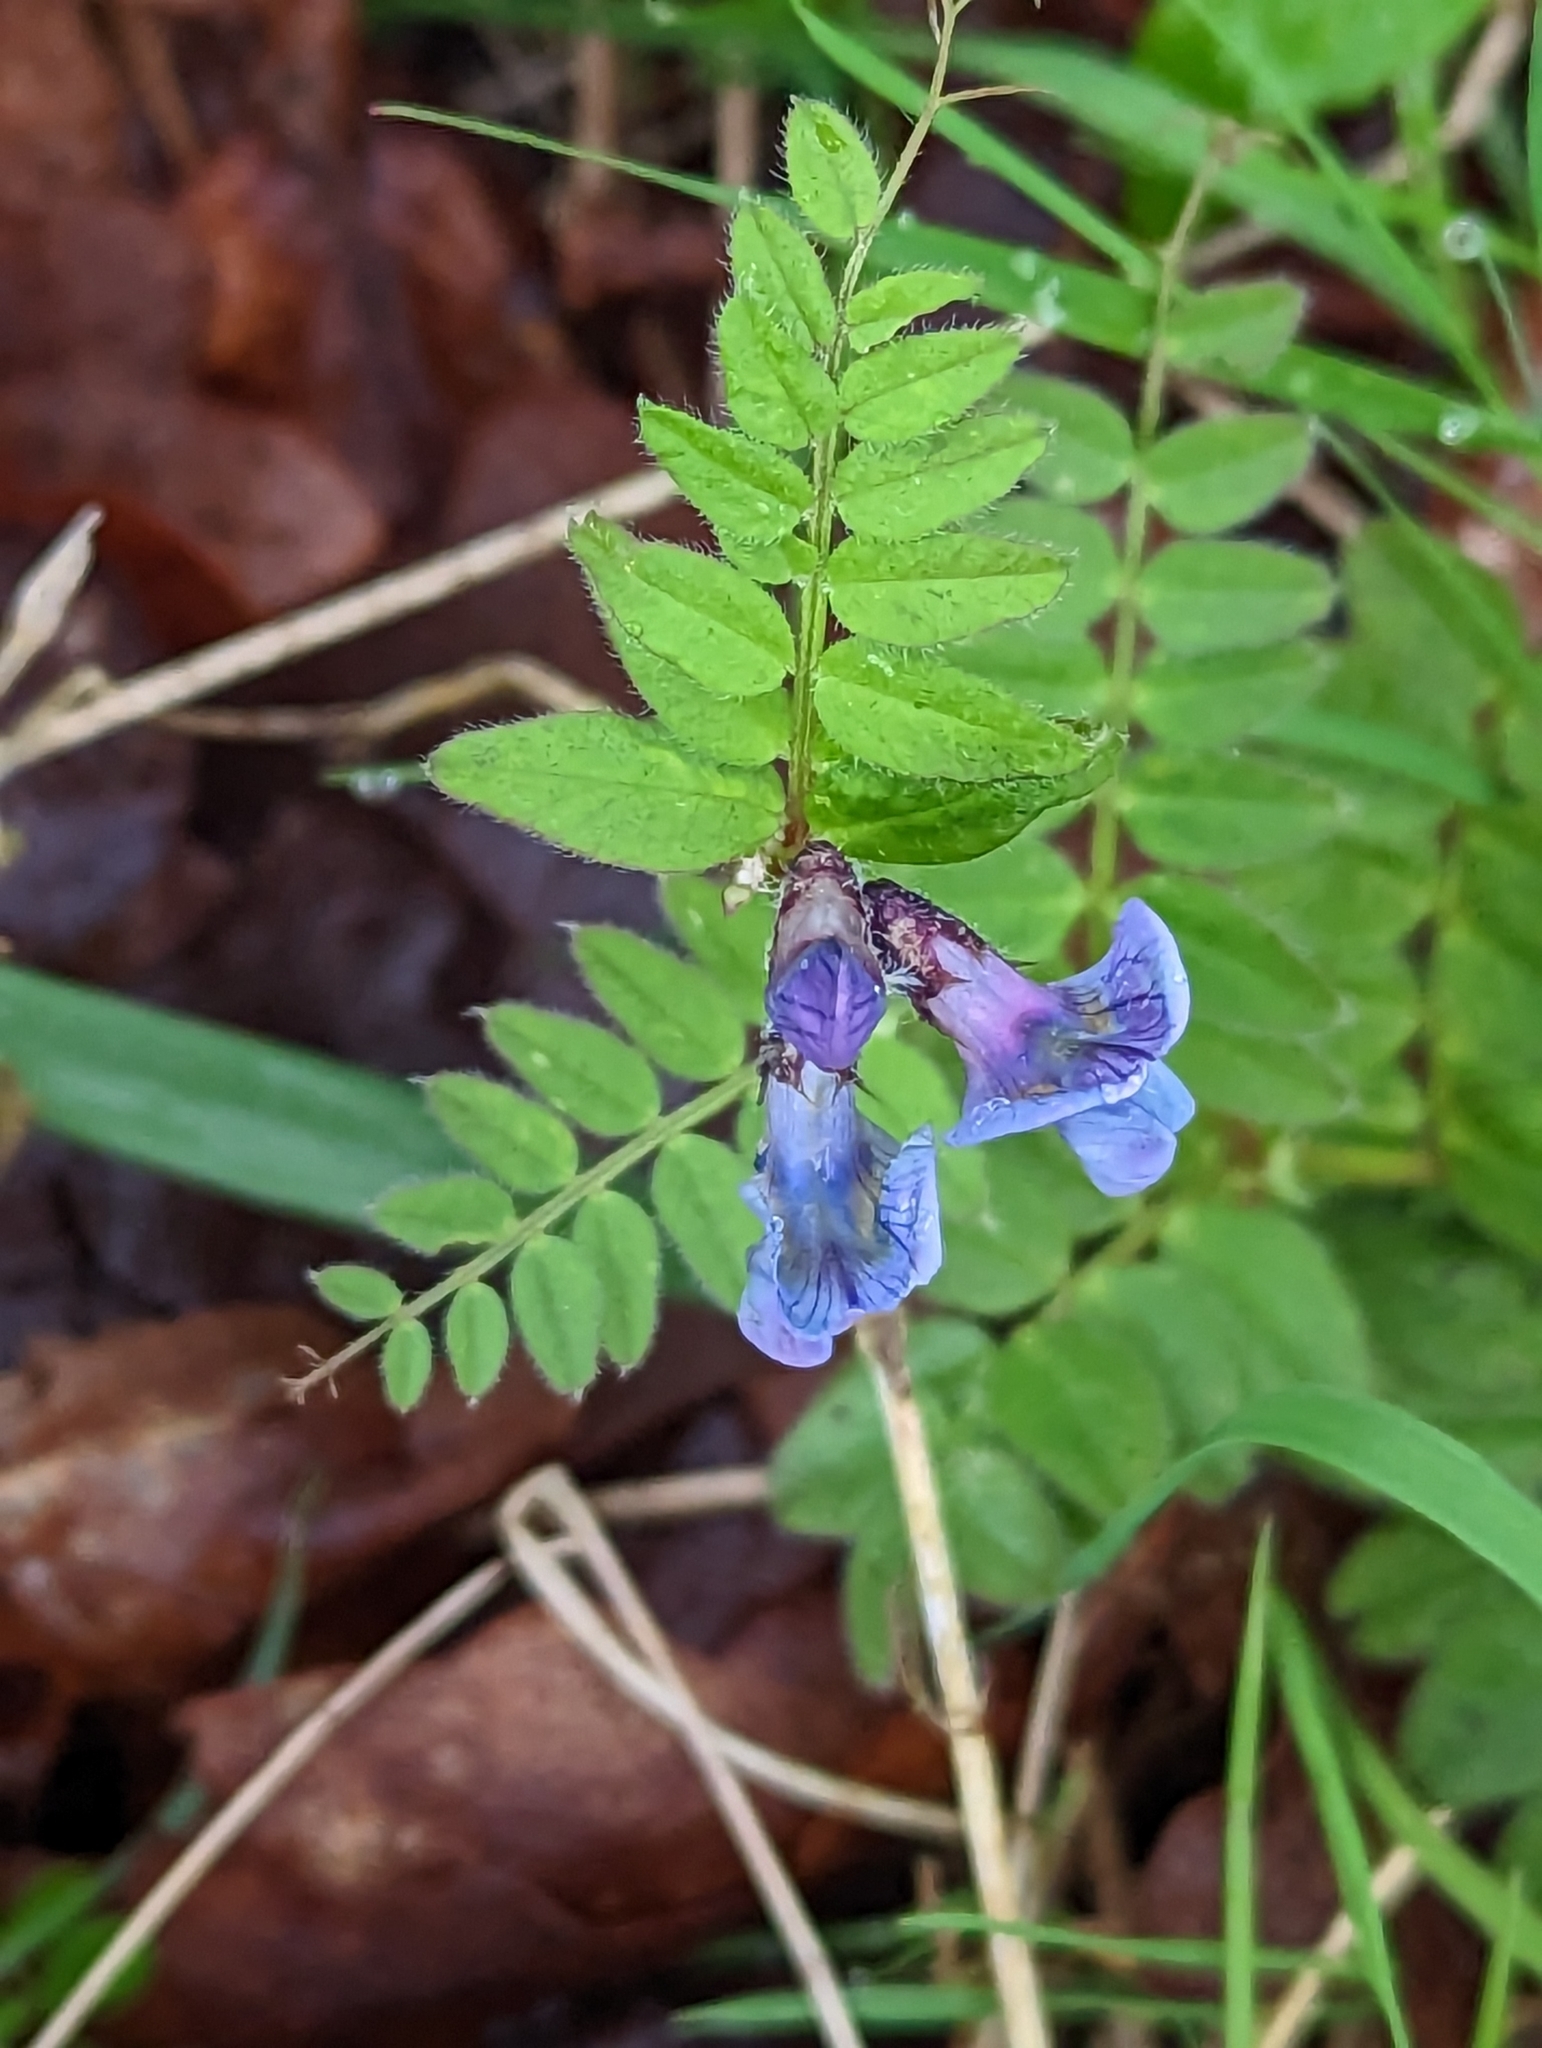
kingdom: Plantae
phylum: Tracheophyta
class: Magnoliopsida
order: Fabales
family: Fabaceae
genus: Vicia
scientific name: Vicia sepium
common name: Bush vetch
